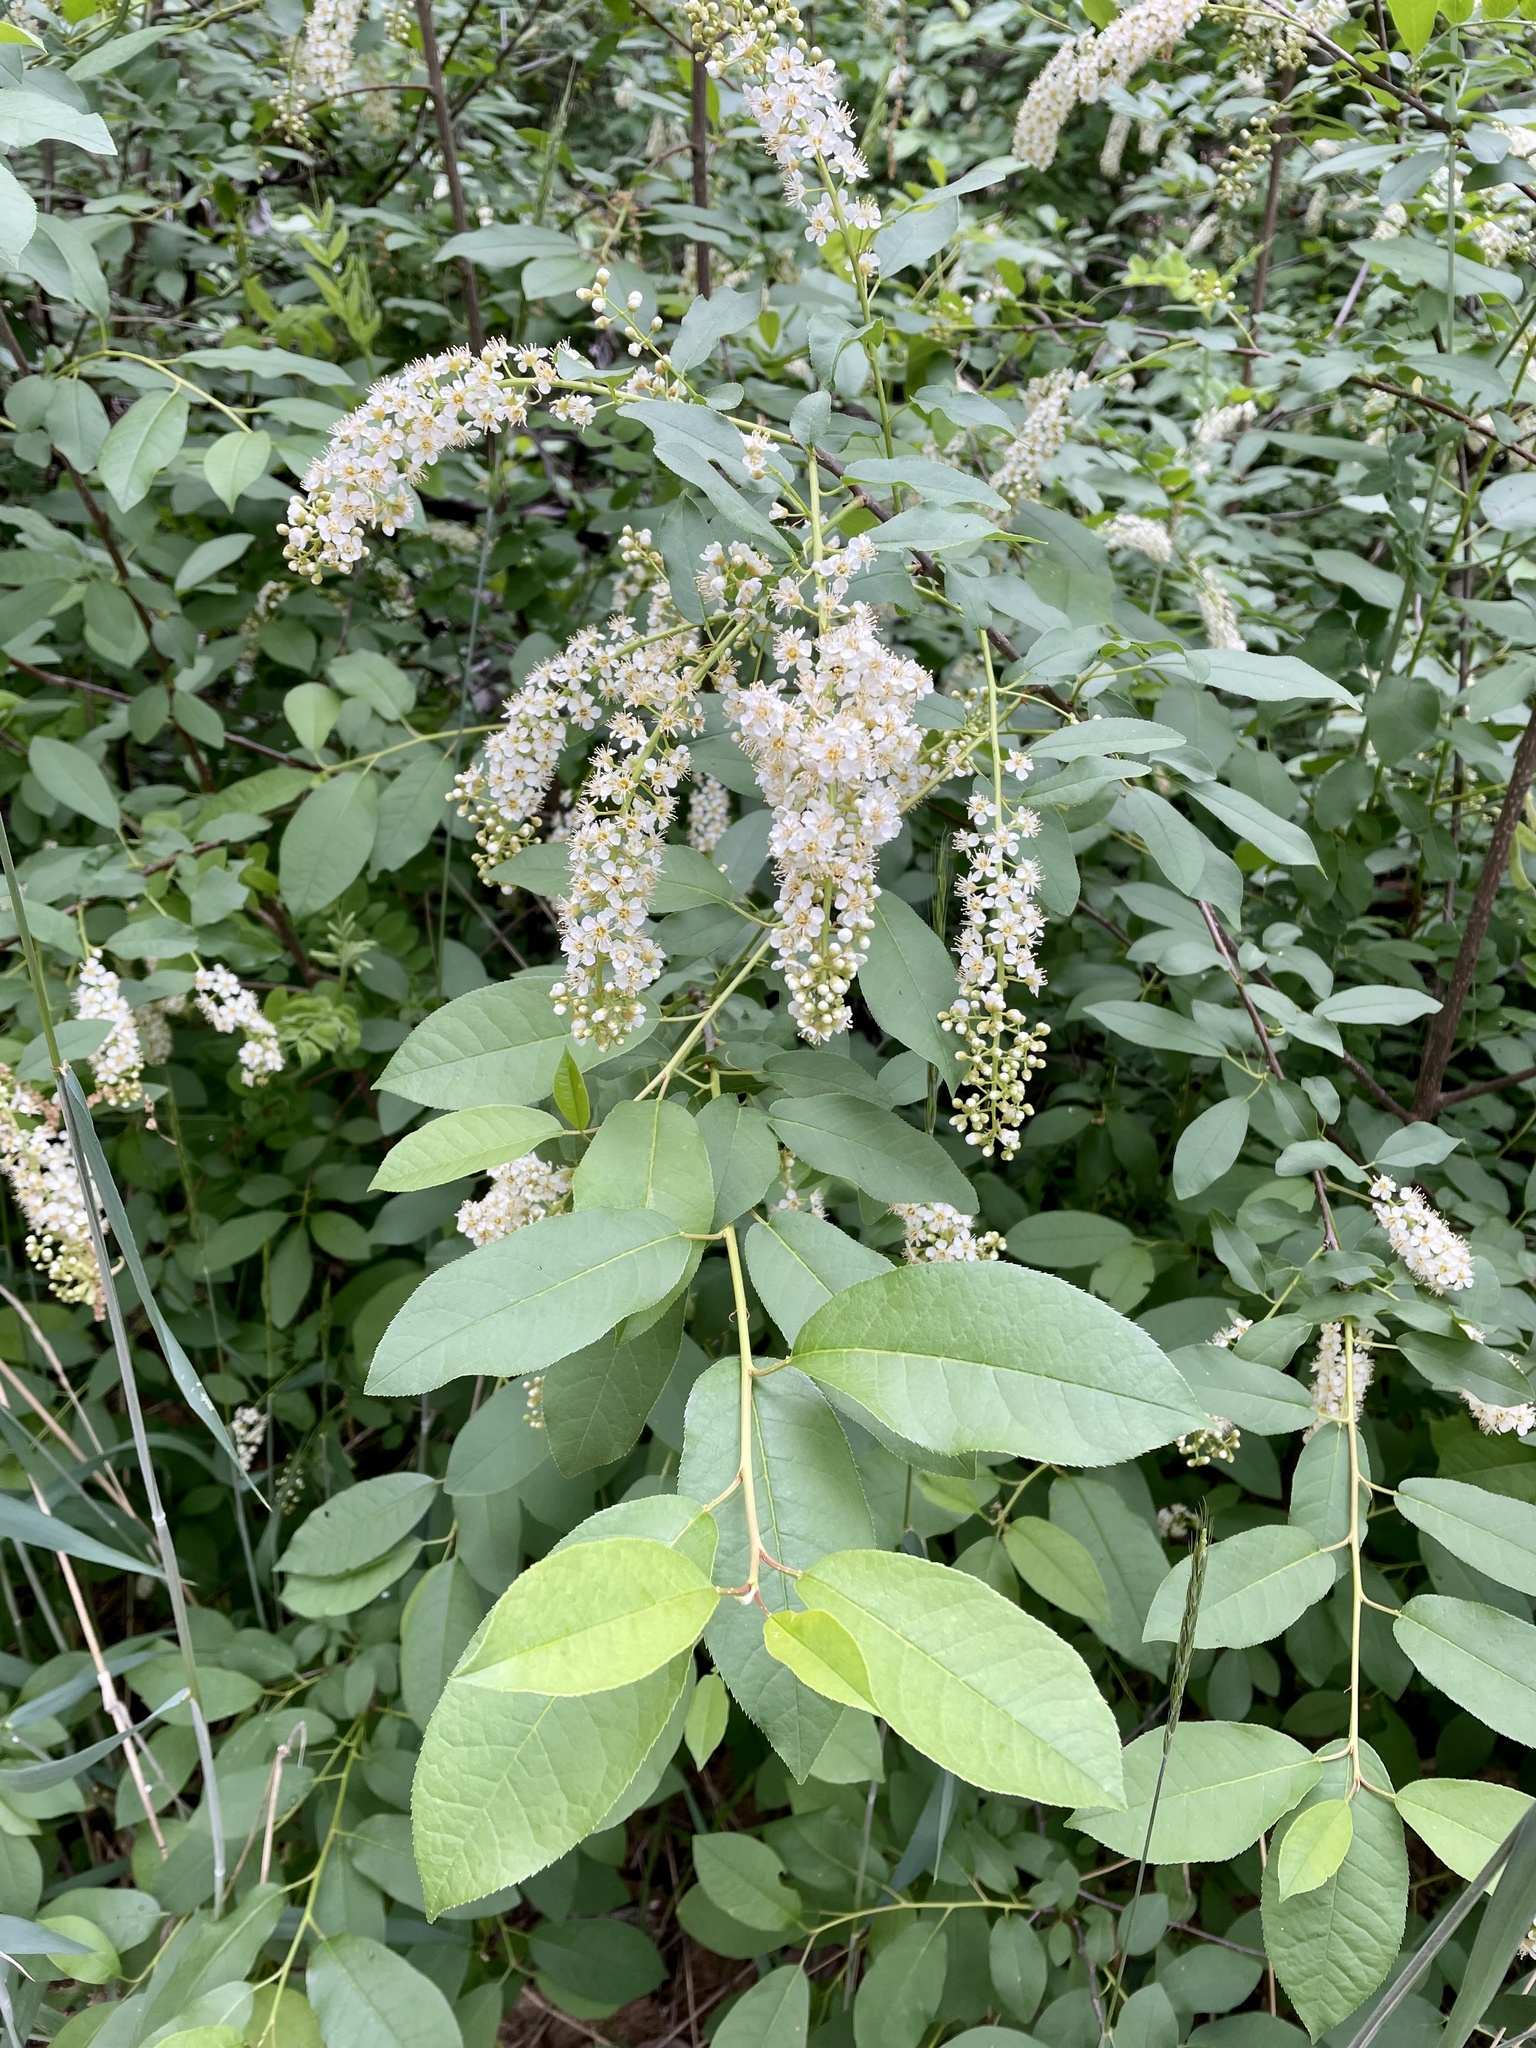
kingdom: Plantae
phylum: Tracheophyta
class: Magnoliopsida
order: Rosales
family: Rosaceae
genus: Prunus
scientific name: Prunus virginiana
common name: Chokecherry
